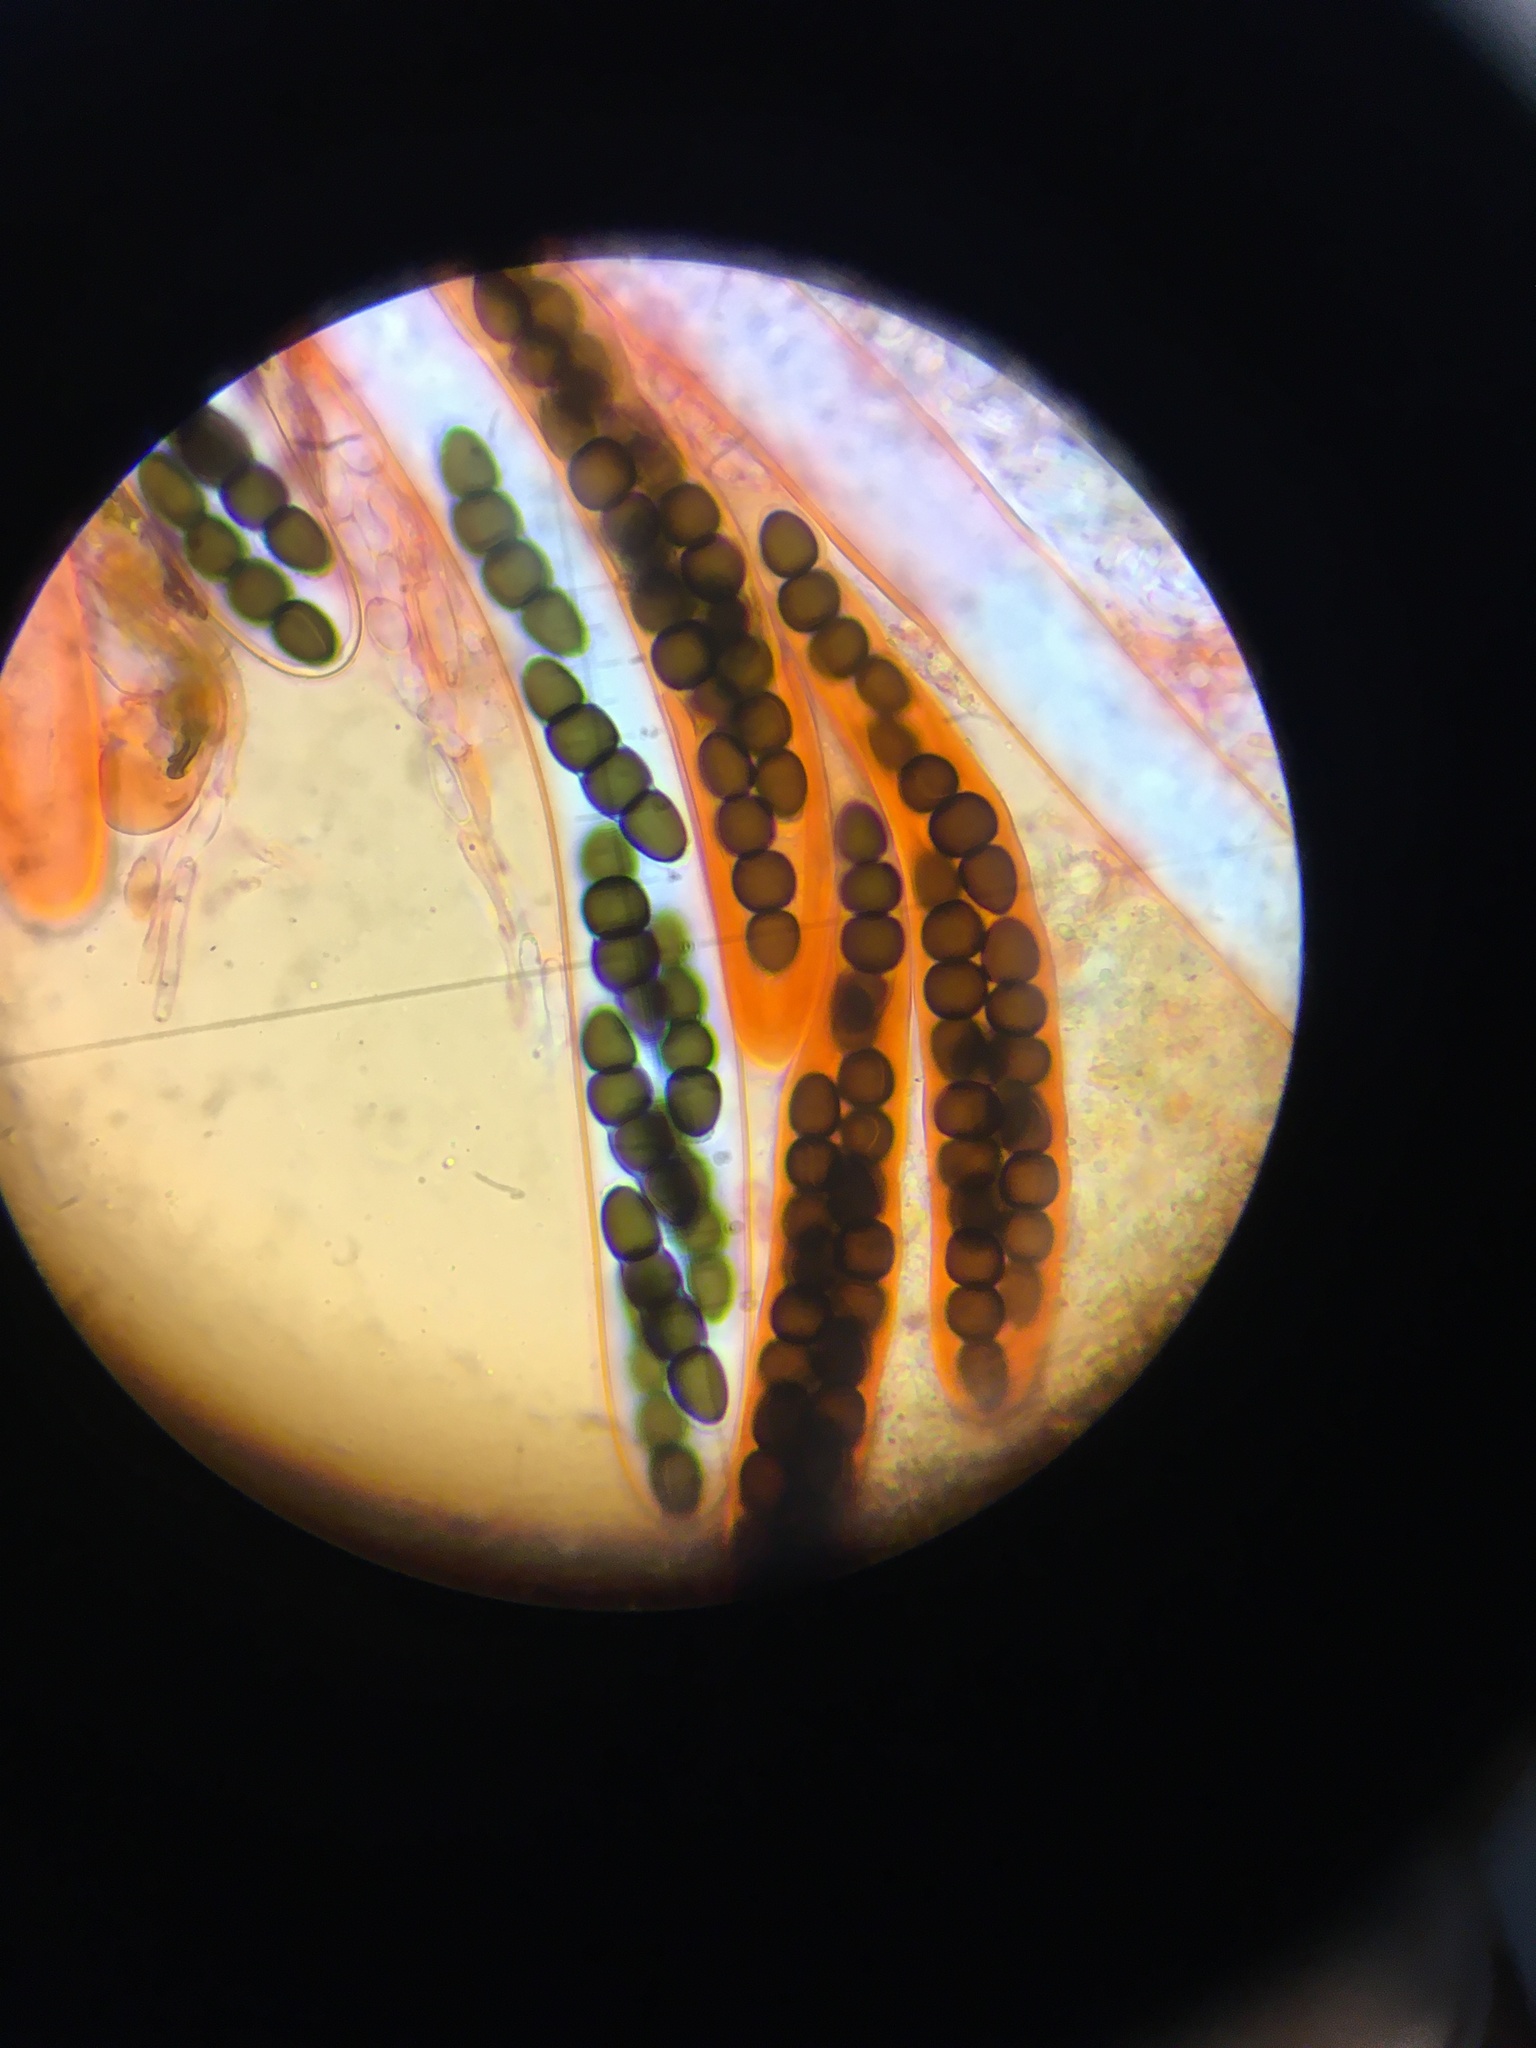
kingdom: Fungi
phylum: Ascomycota
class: Dothideomycetes
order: Pleosporales
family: Sporormiaceae
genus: Preussia
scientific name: Preussia cymatomera
